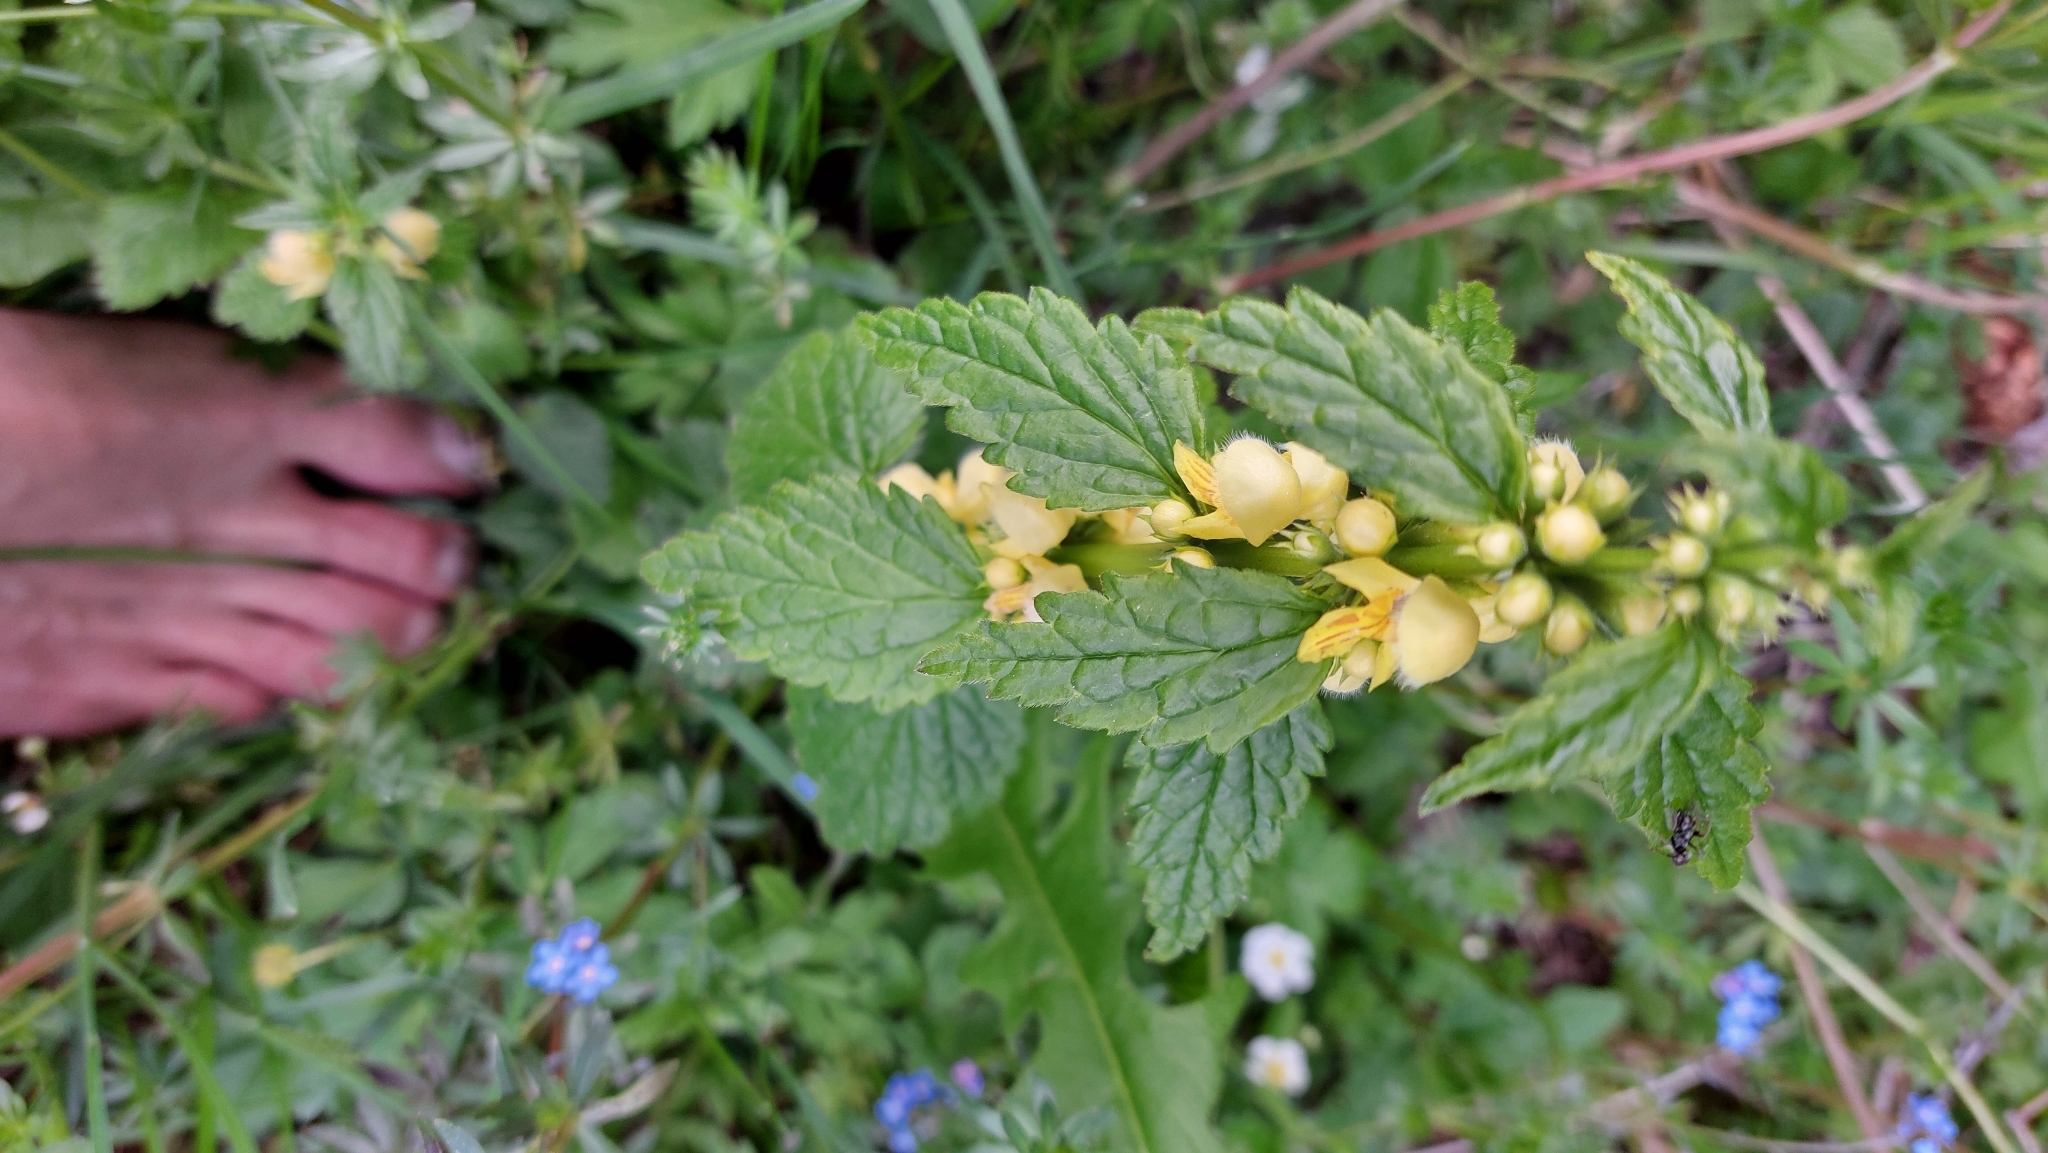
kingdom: Plantae
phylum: Tracheophyta
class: Magnoliopsida
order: Lamiales
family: Lamiaceae
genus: Lamium
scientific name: Lamium galeobdolon
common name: Yellow archangel
